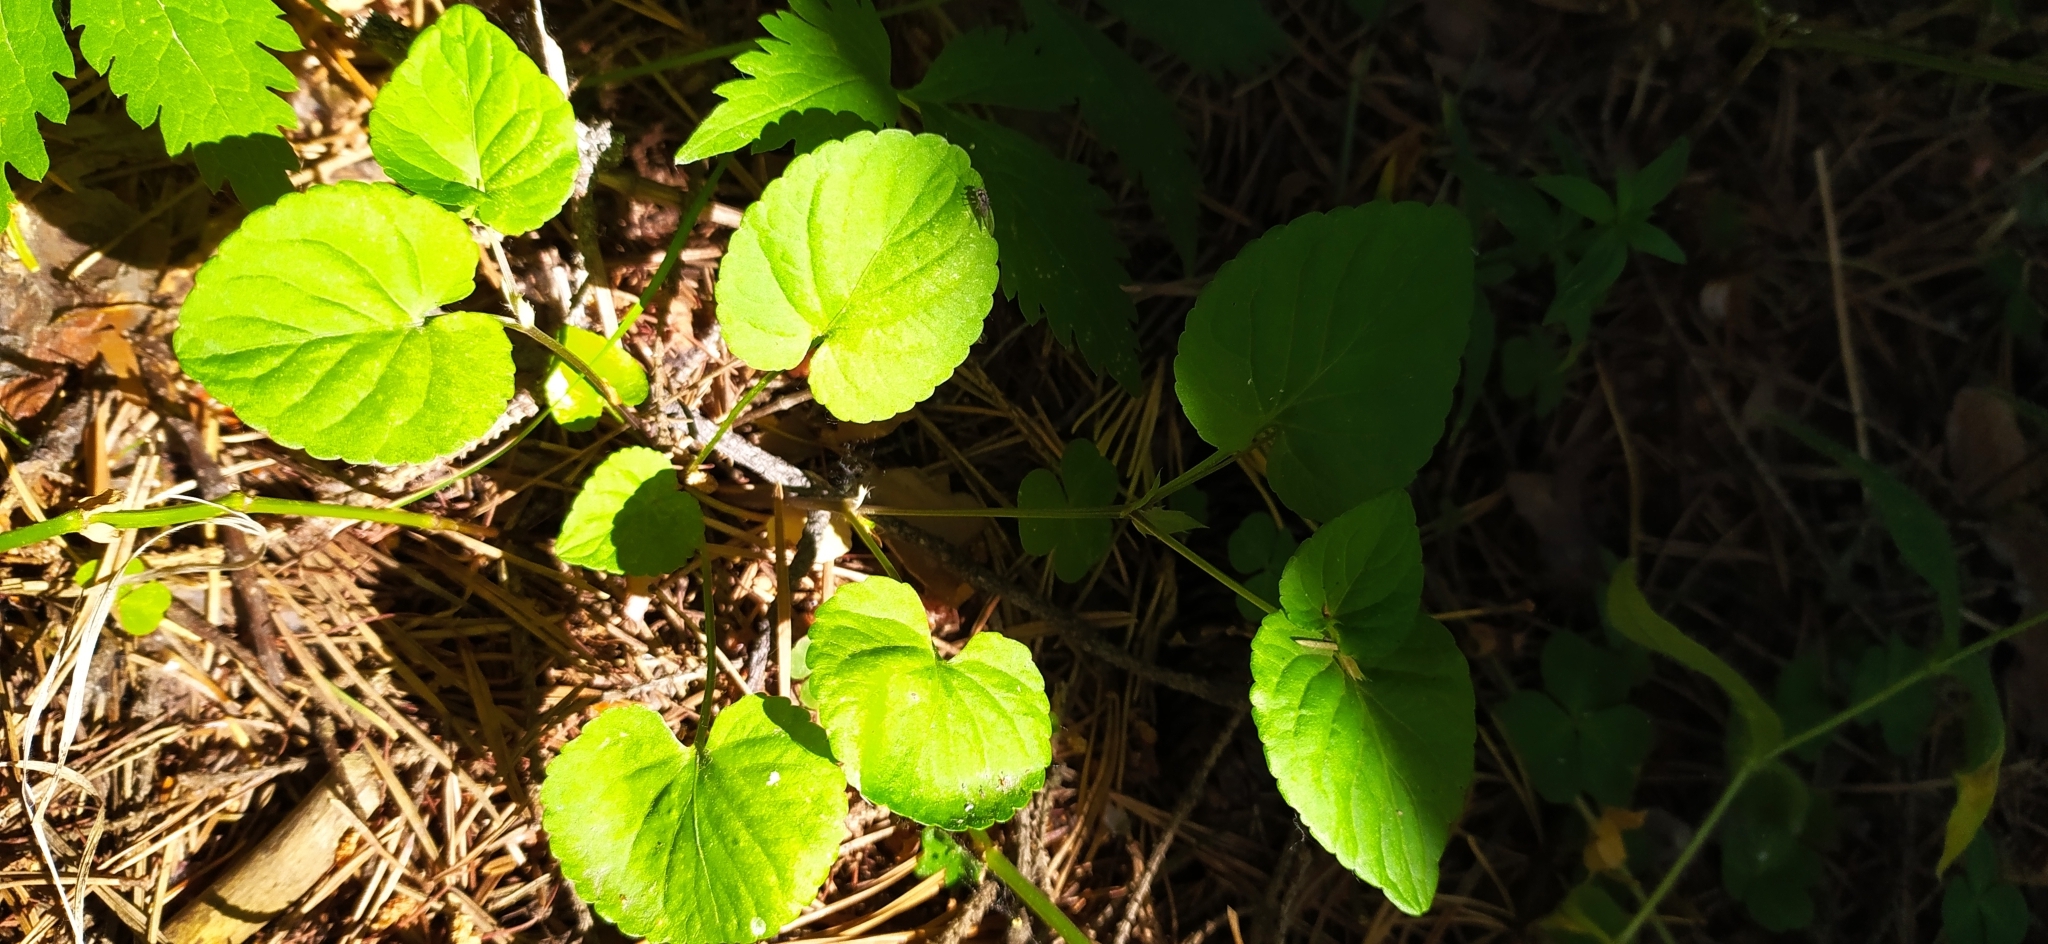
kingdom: Plantae
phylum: Tracheophyta
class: Magnoliopsida
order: Malpighiales
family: Violaceae
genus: Viola
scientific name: Viola canina
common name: Heath dog-violet
